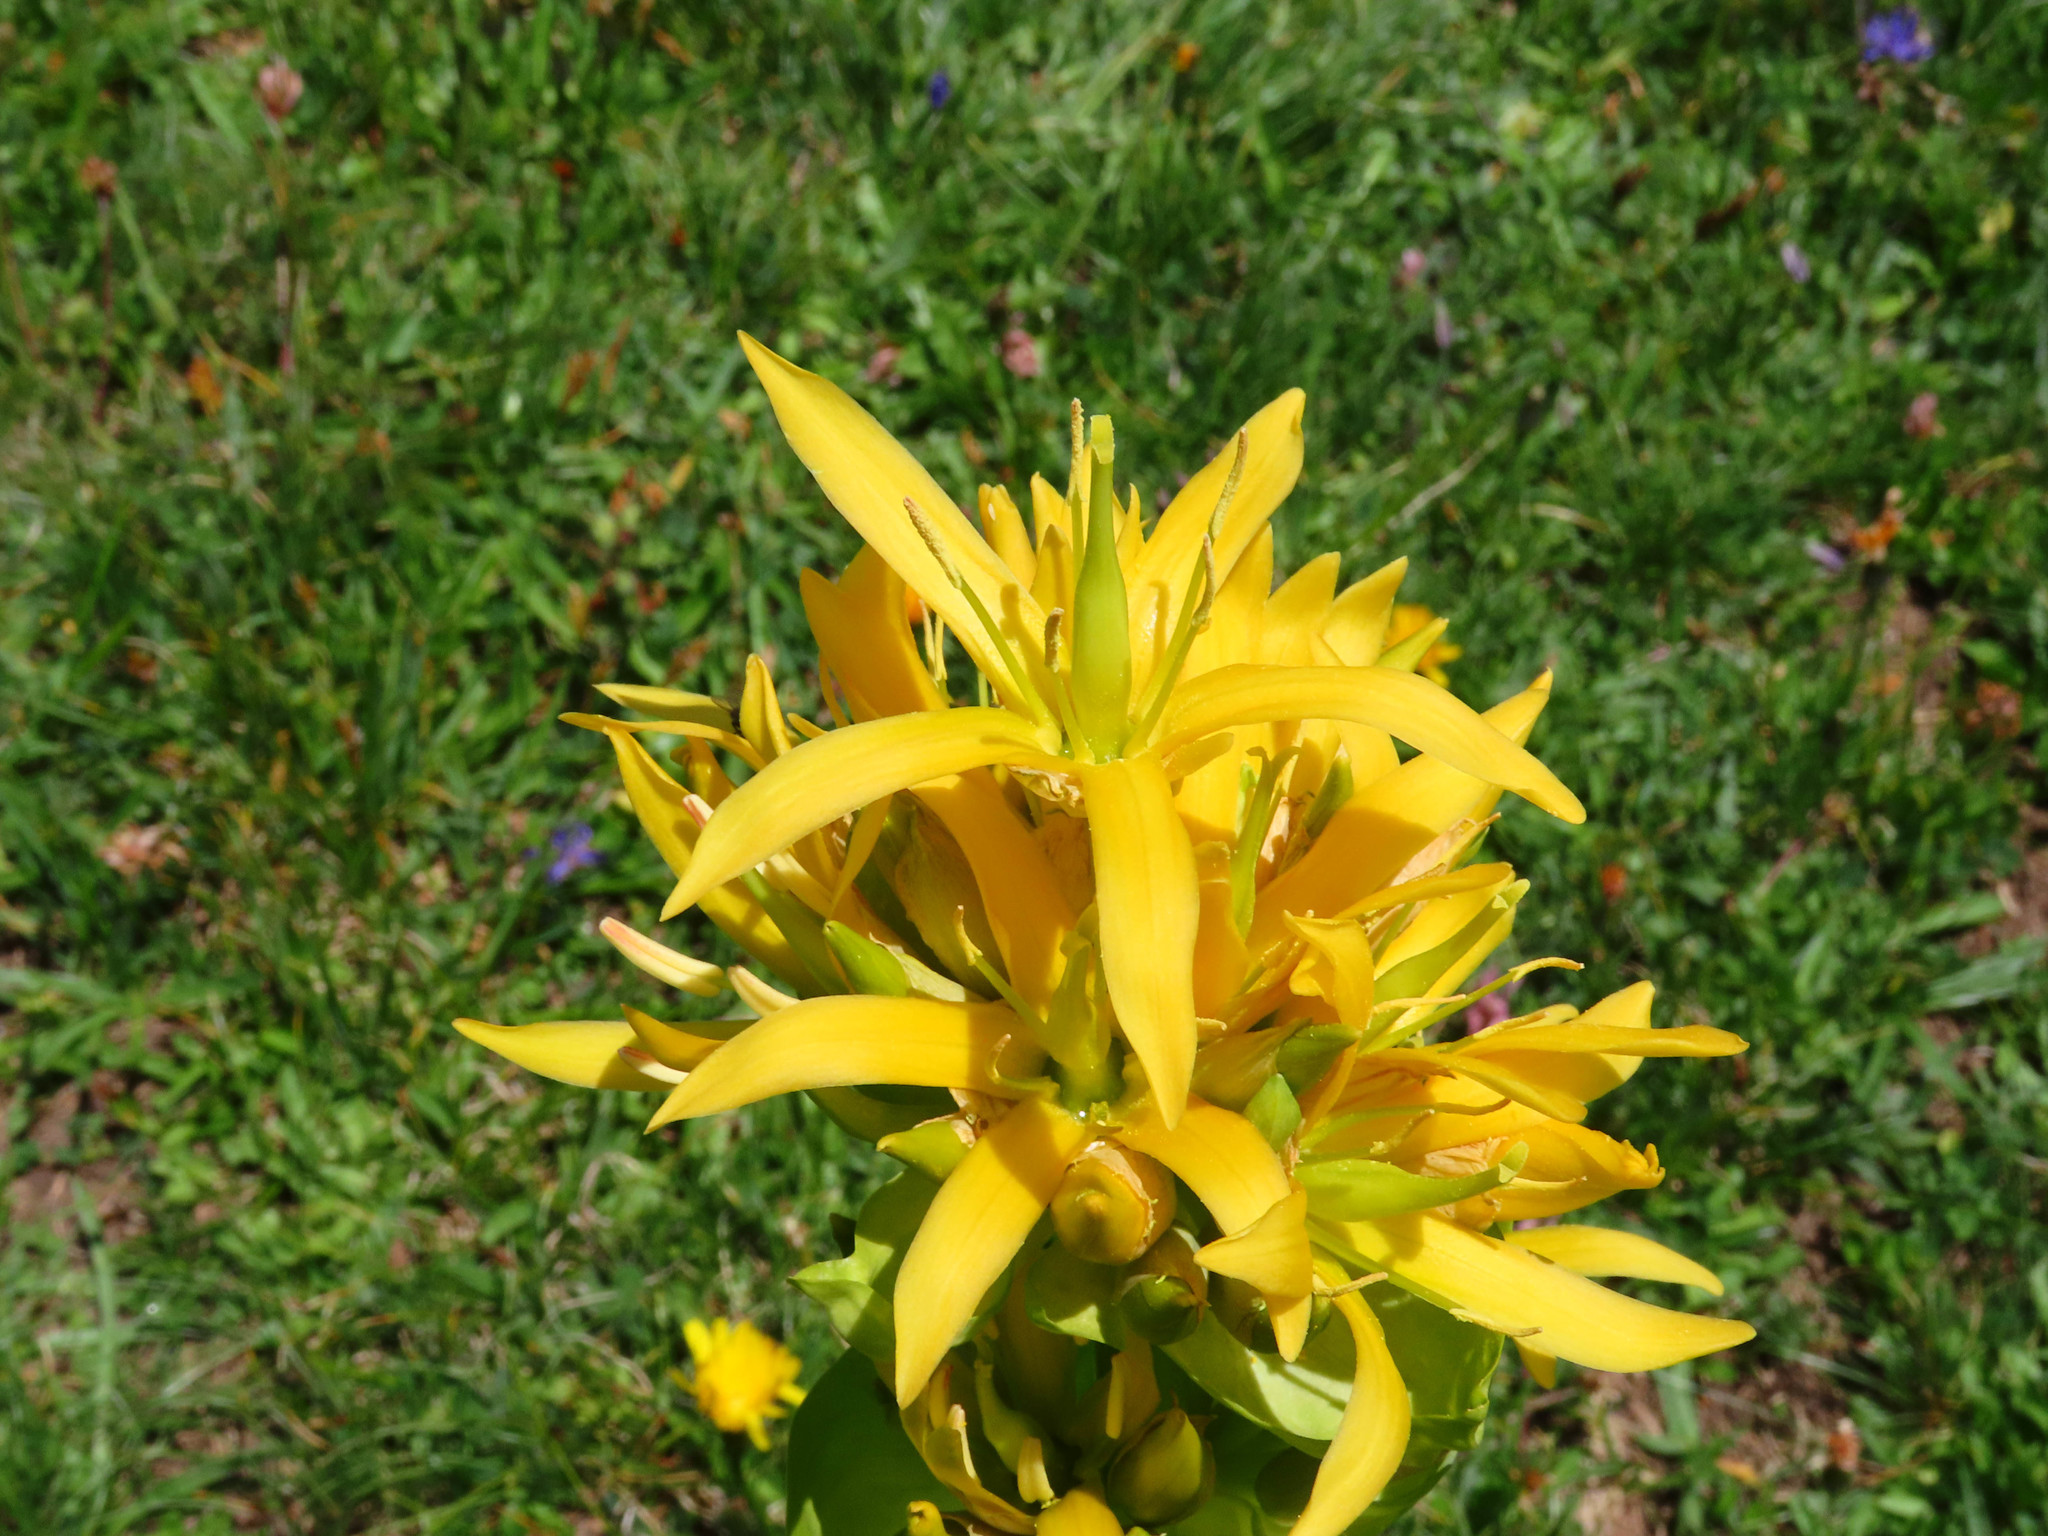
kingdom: Plantae
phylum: Tracheophyta
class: Magnoliopsida
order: Gentianales
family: Gentianaceae
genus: Gentiana
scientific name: Gentiana lutea
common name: Great yellow gentian
